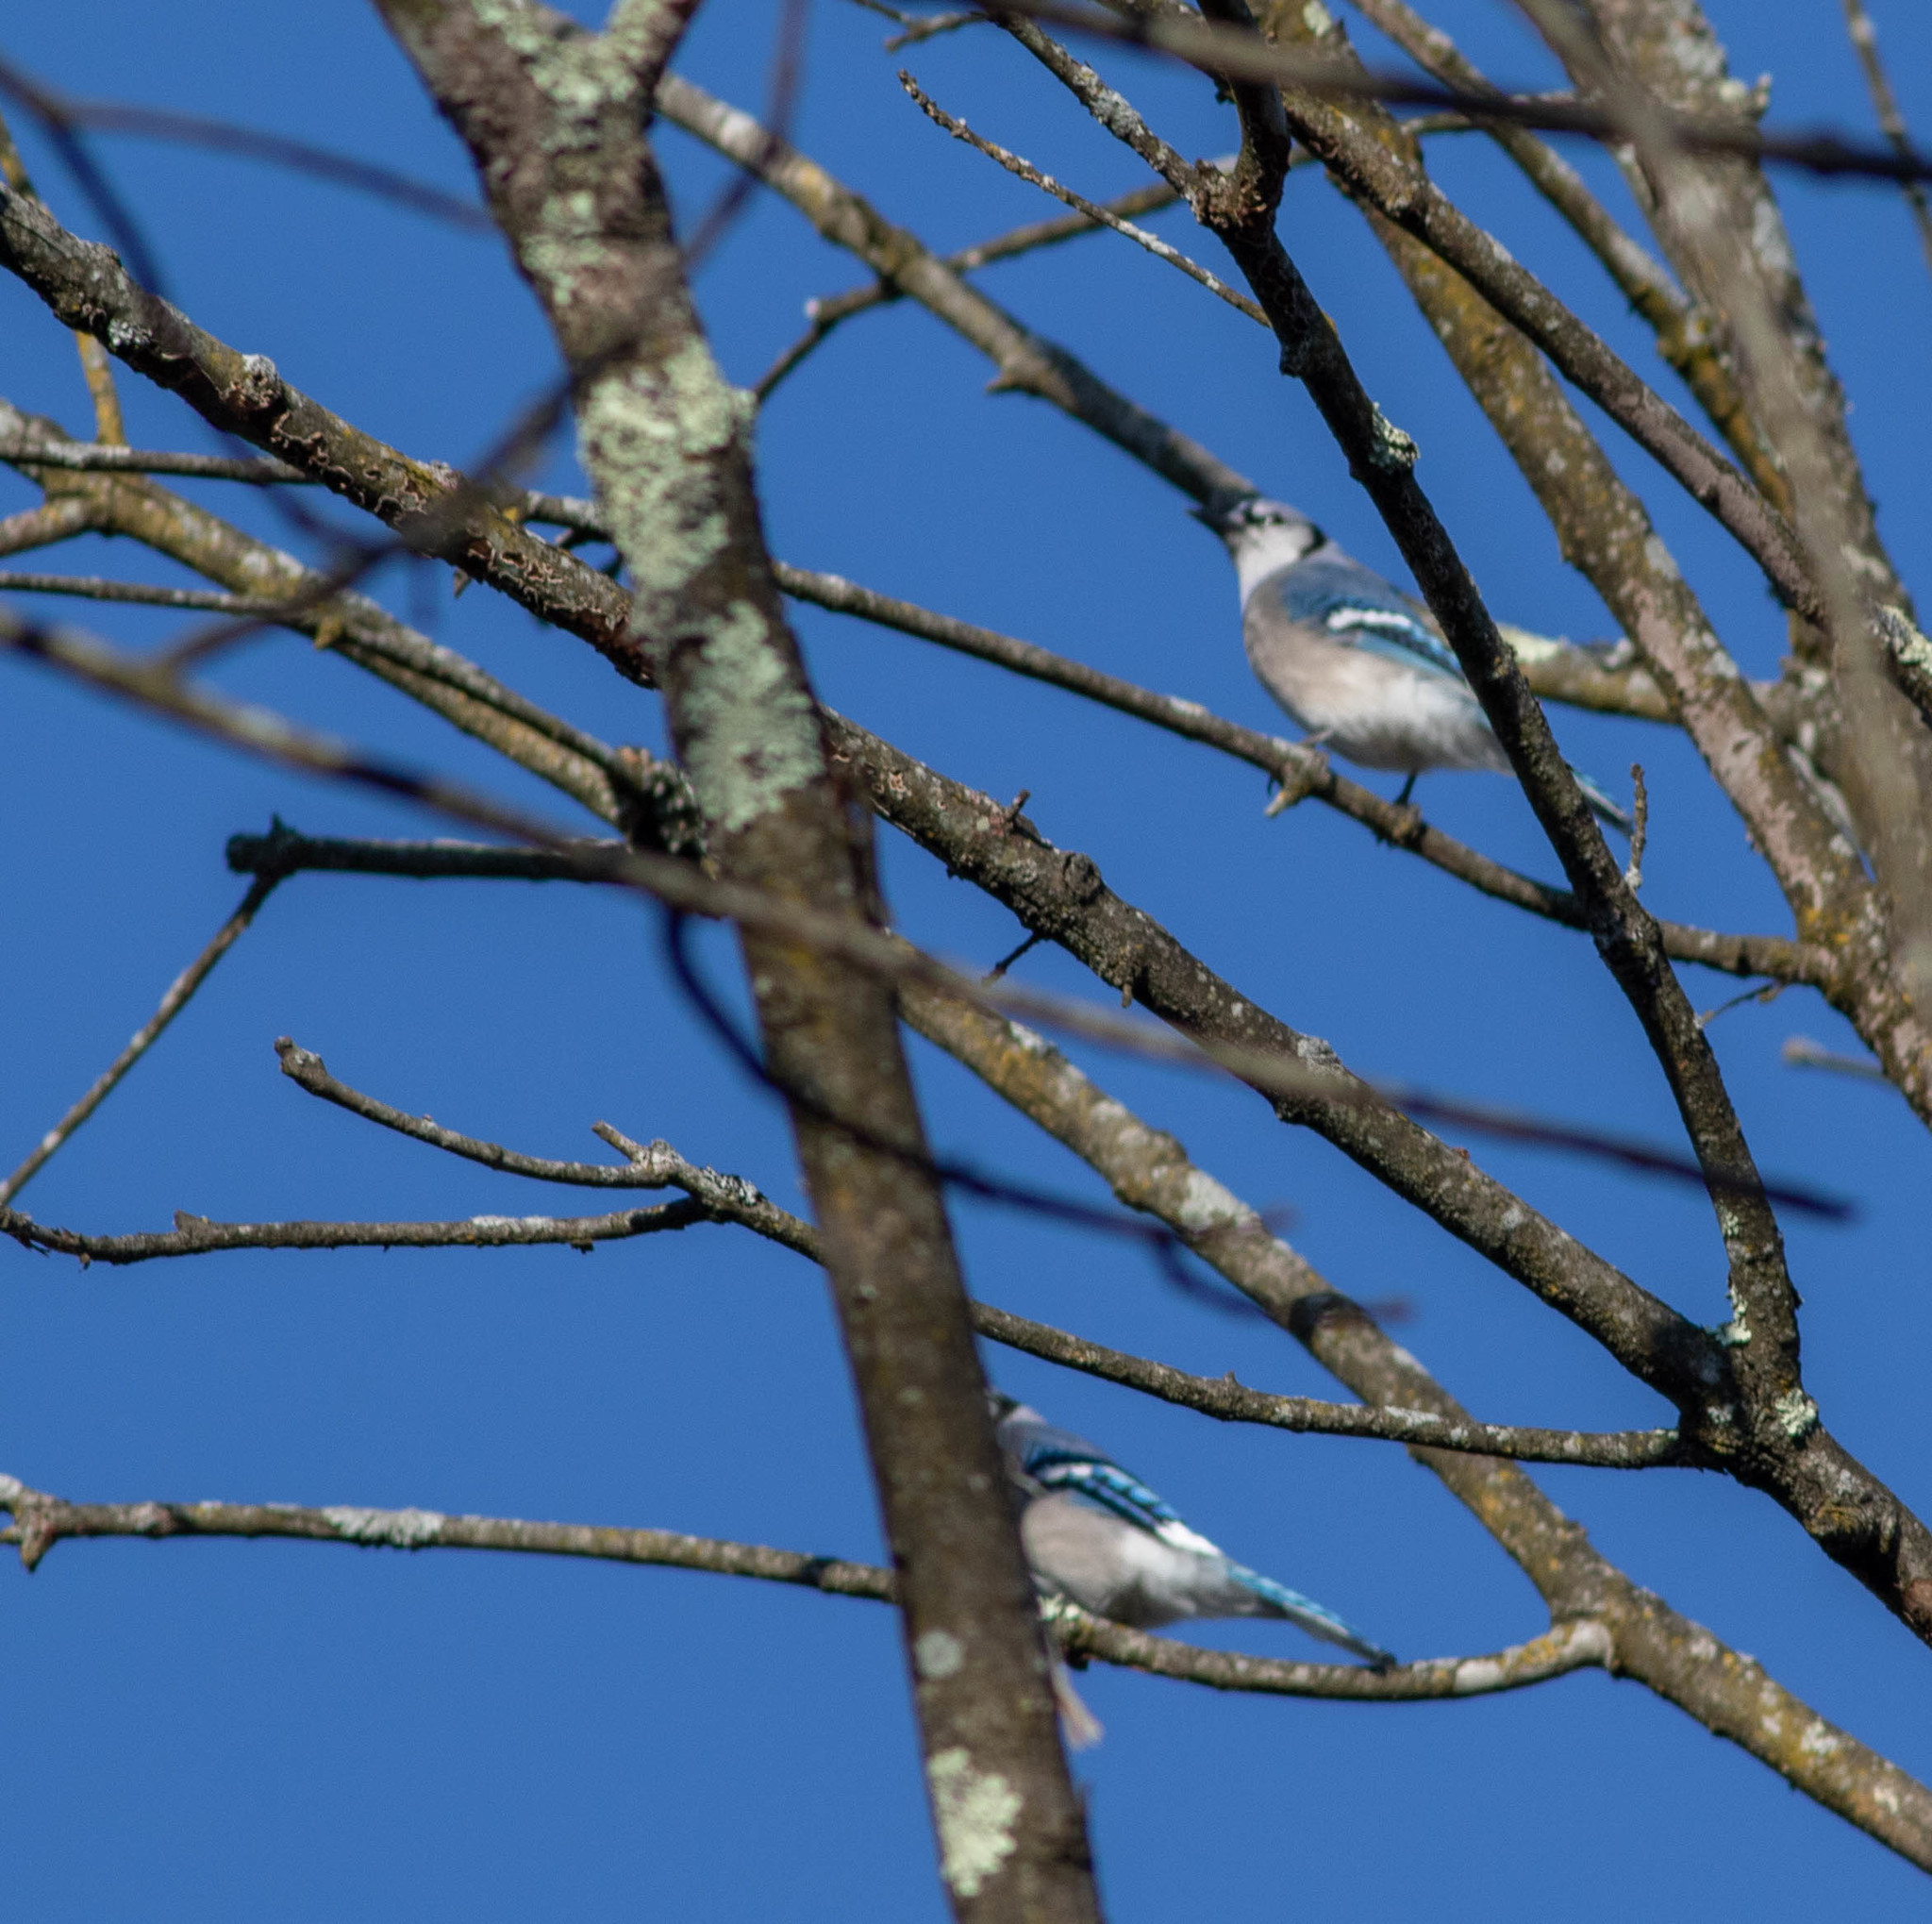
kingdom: Animalia
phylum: Chordata
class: Aves
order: Passeriformes
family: Corvidae
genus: Cyanocitta
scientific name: Cyanocitta cristata
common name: Blue jay
